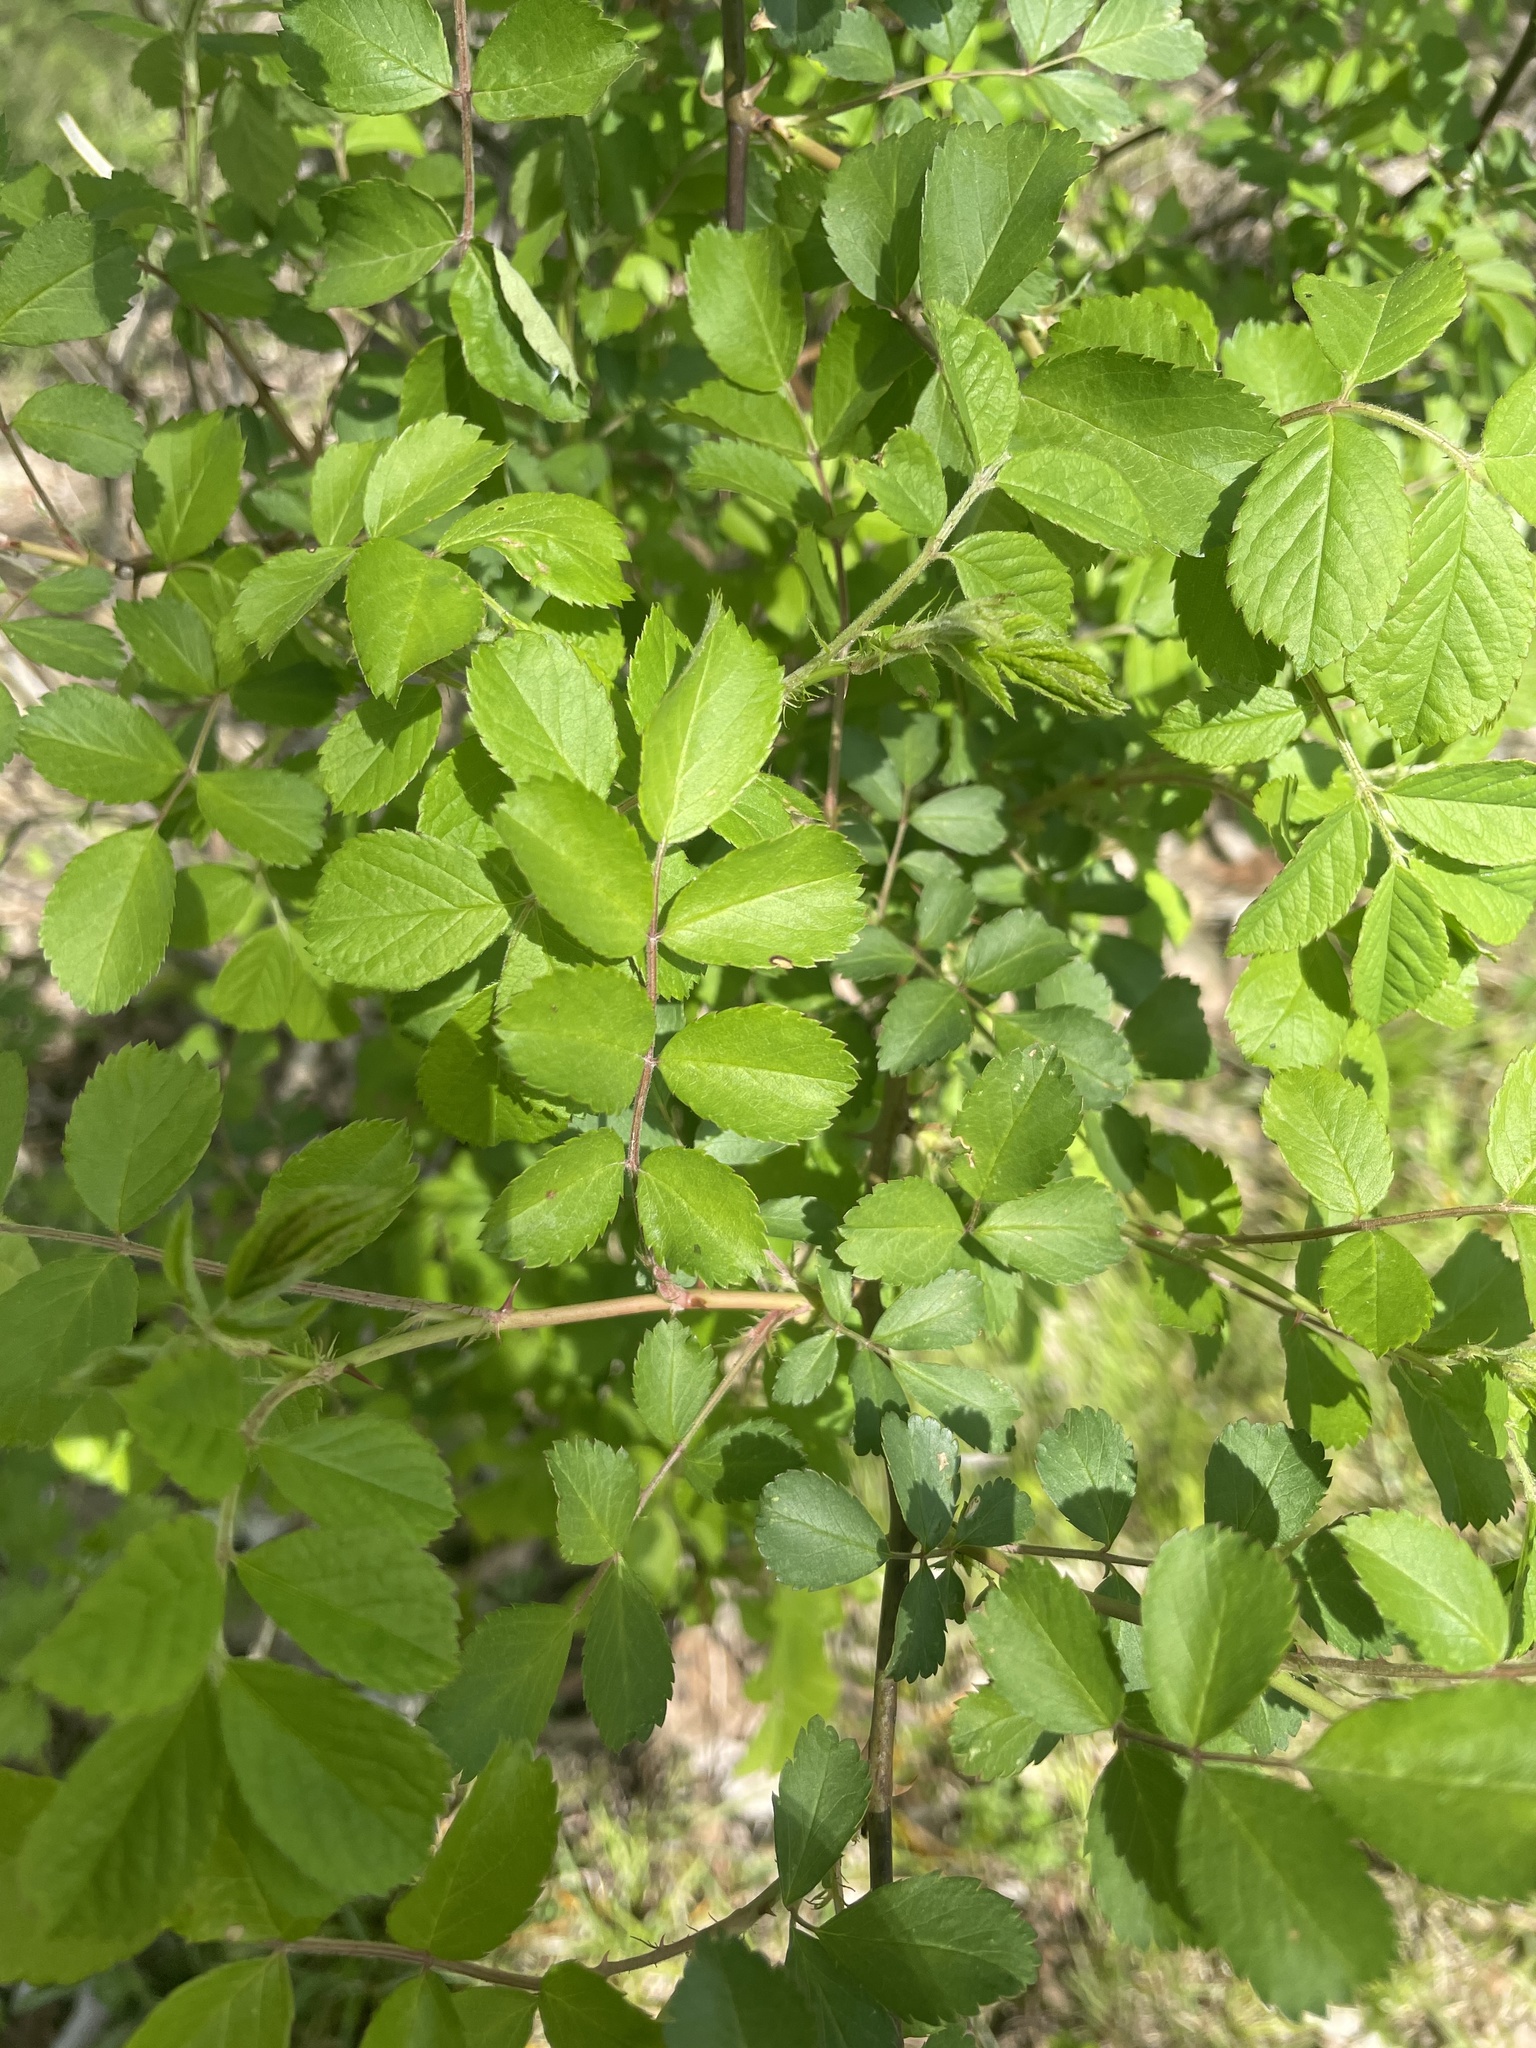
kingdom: Plantae
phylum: Tracheophyta
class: Magnoliopsida
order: Rosales
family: Rosaceae
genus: Rosa
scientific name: Rosa multiflora
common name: Multiflora rose
